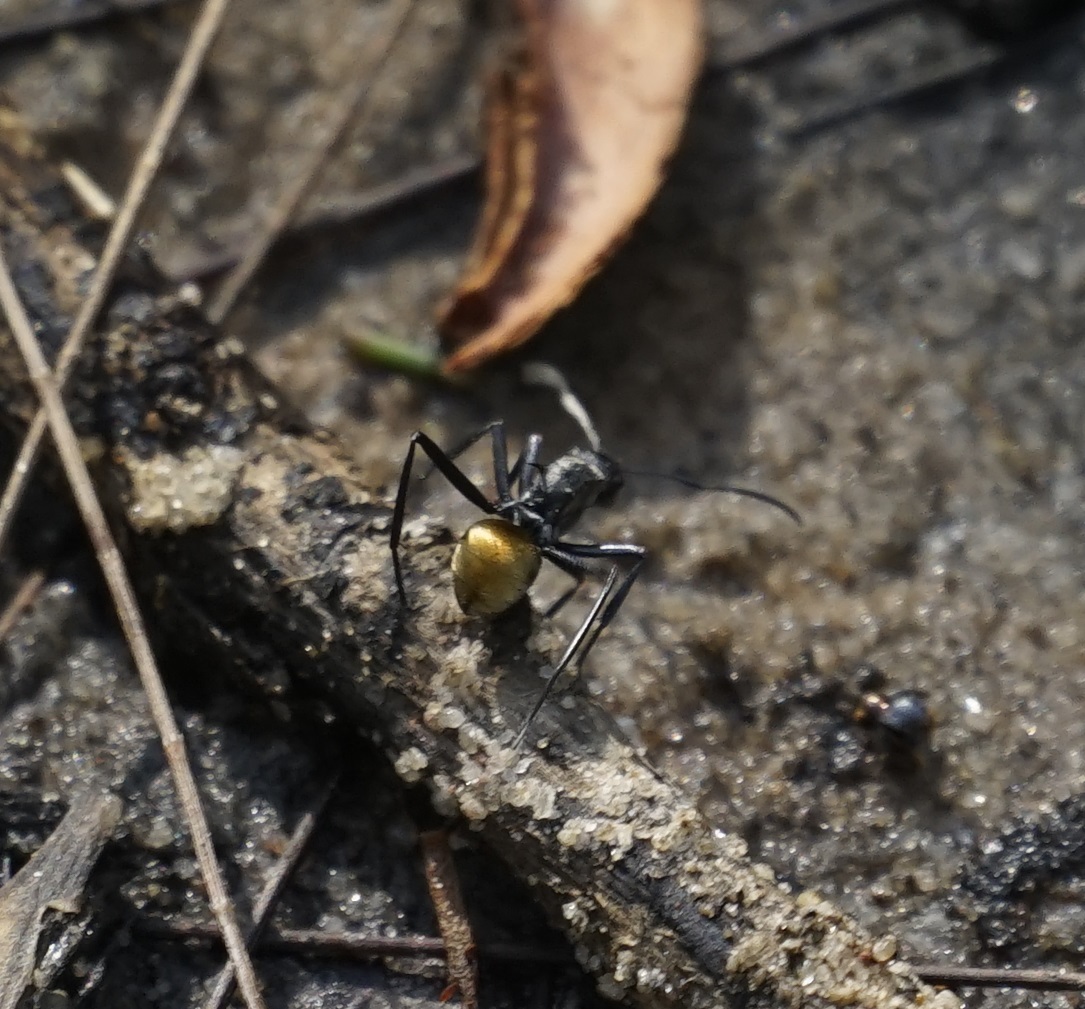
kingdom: Animalia
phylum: Arthropoda
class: Insecta
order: Hymenoptera
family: Formicidae
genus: Polyrhachis
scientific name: Polyrhachis ammon
